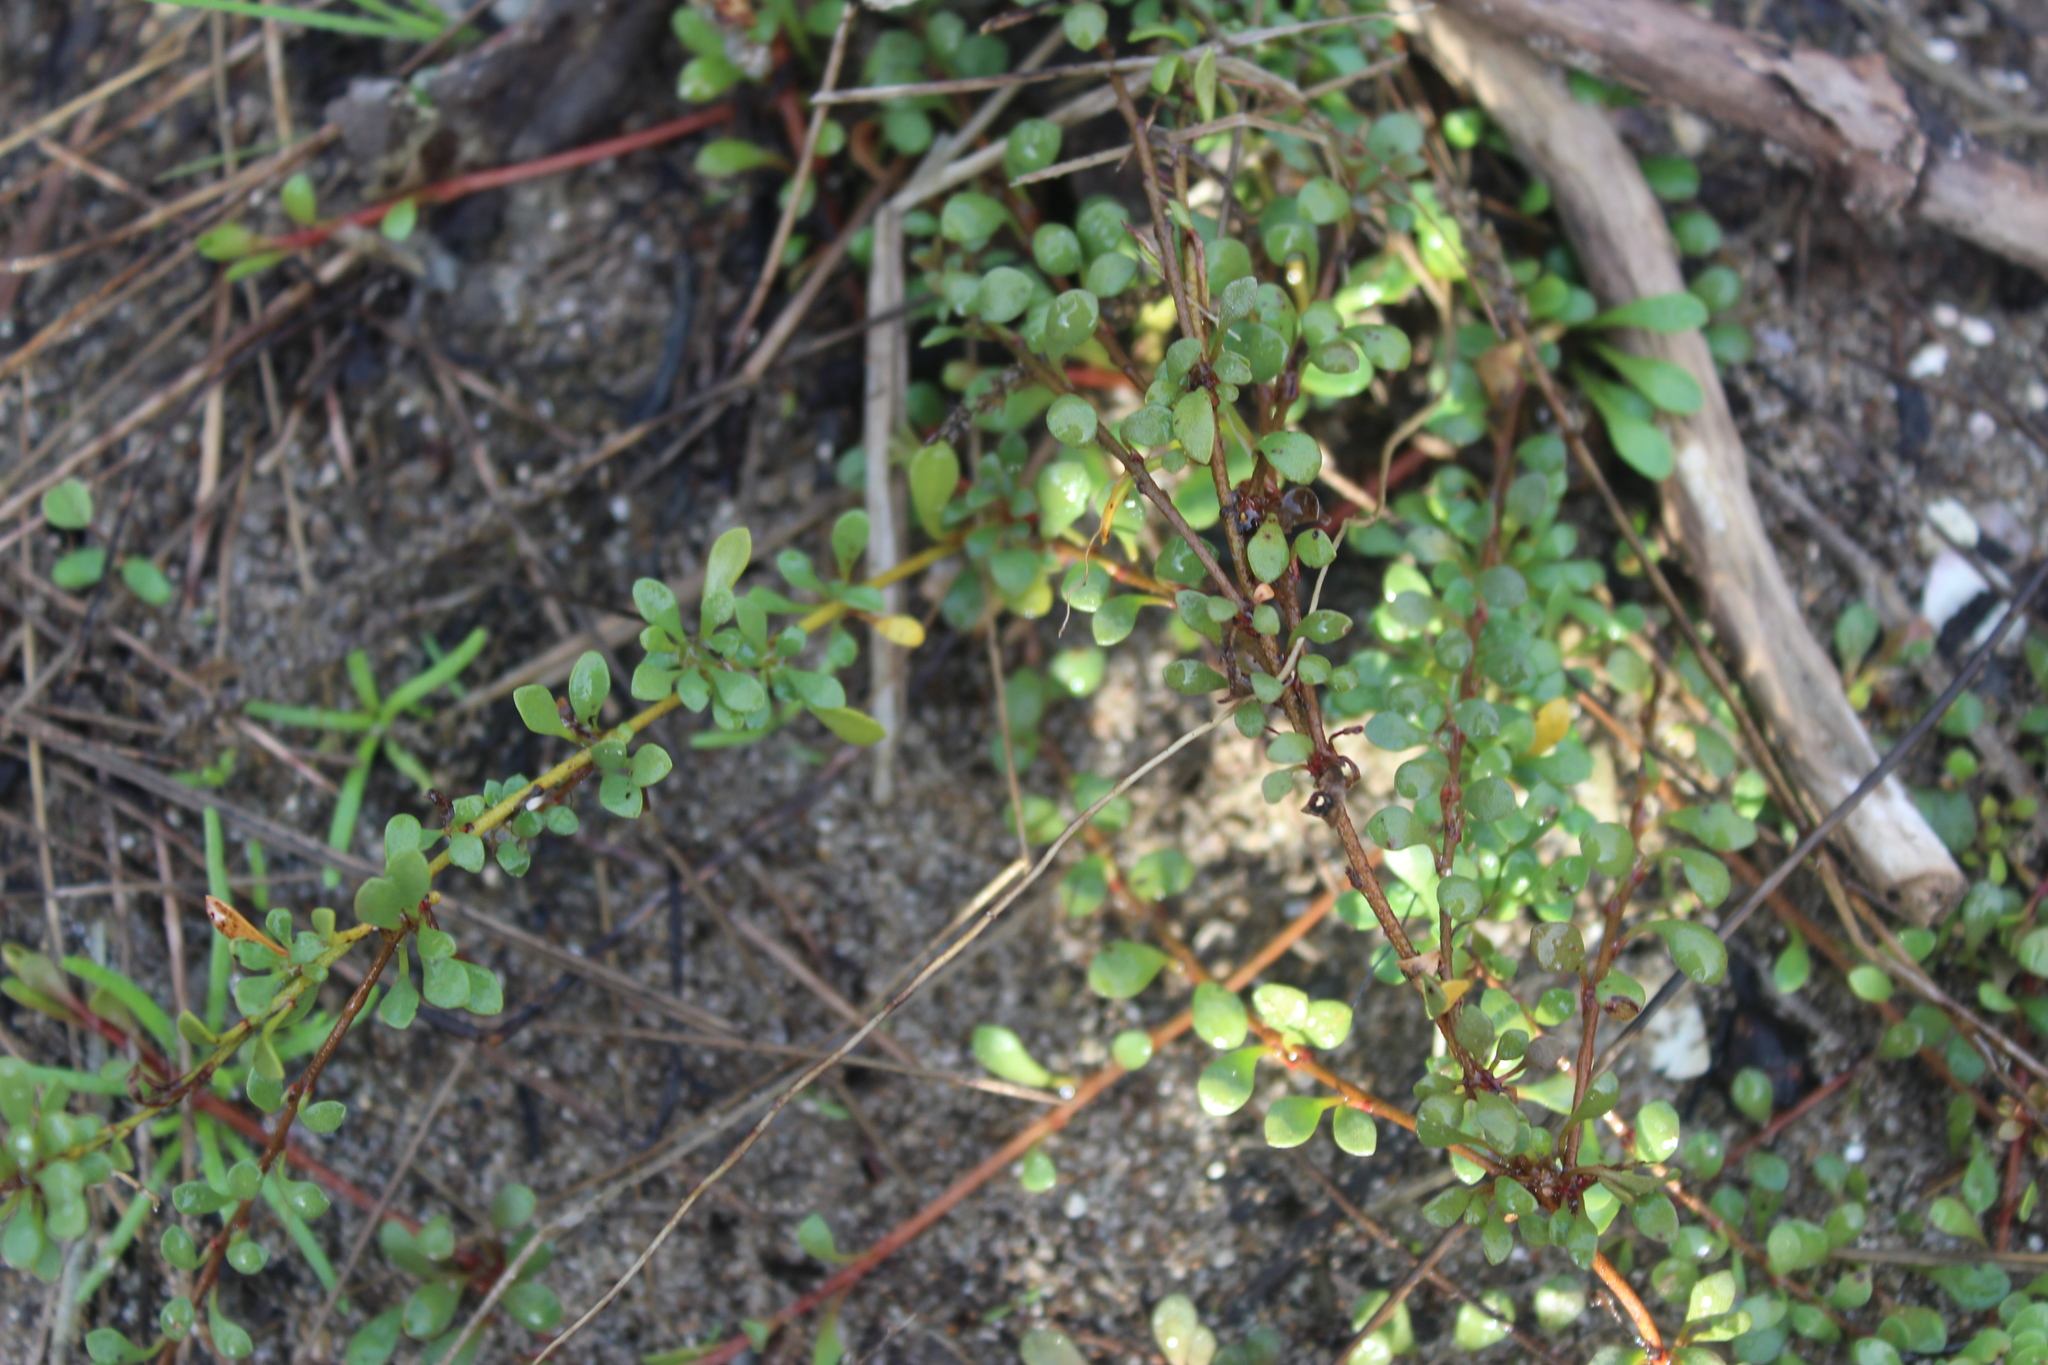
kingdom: Plantae
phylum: Tracheophyta
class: Magnoliopsida
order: Ericales
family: Primulaceae
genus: Samolus
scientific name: Samolus repens
